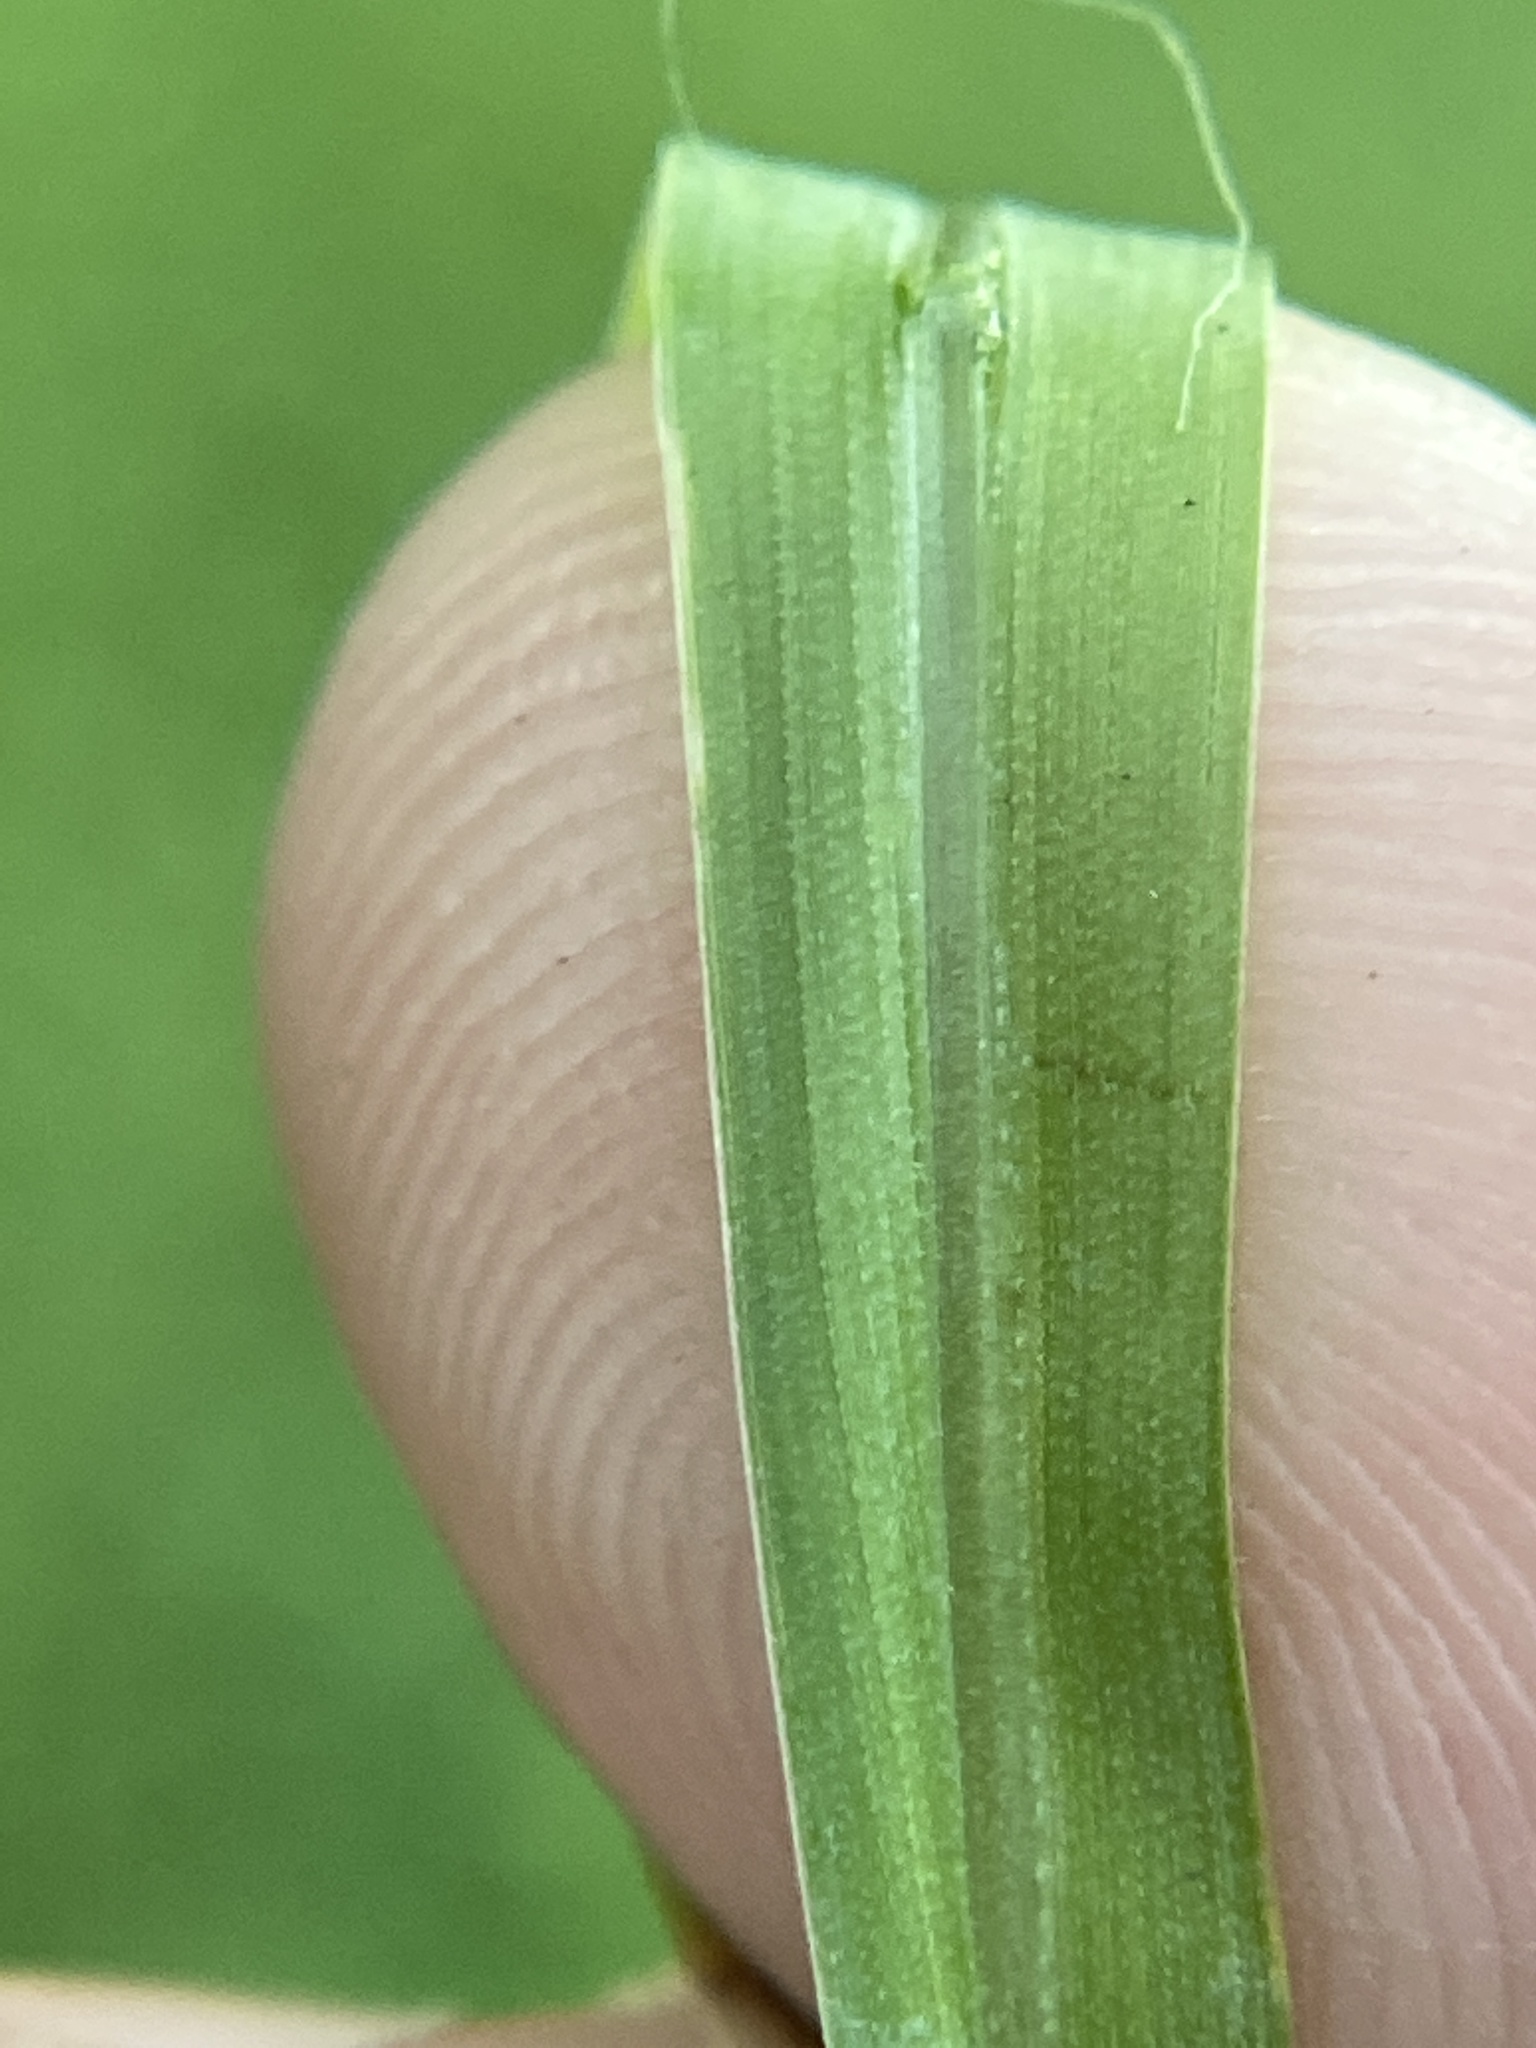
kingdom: Plantae
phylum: Tracheophyta
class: Liliopsida
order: Poales
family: Poaceae
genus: Setaria
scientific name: Setaria pumila
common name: Yellow bristle-grass
